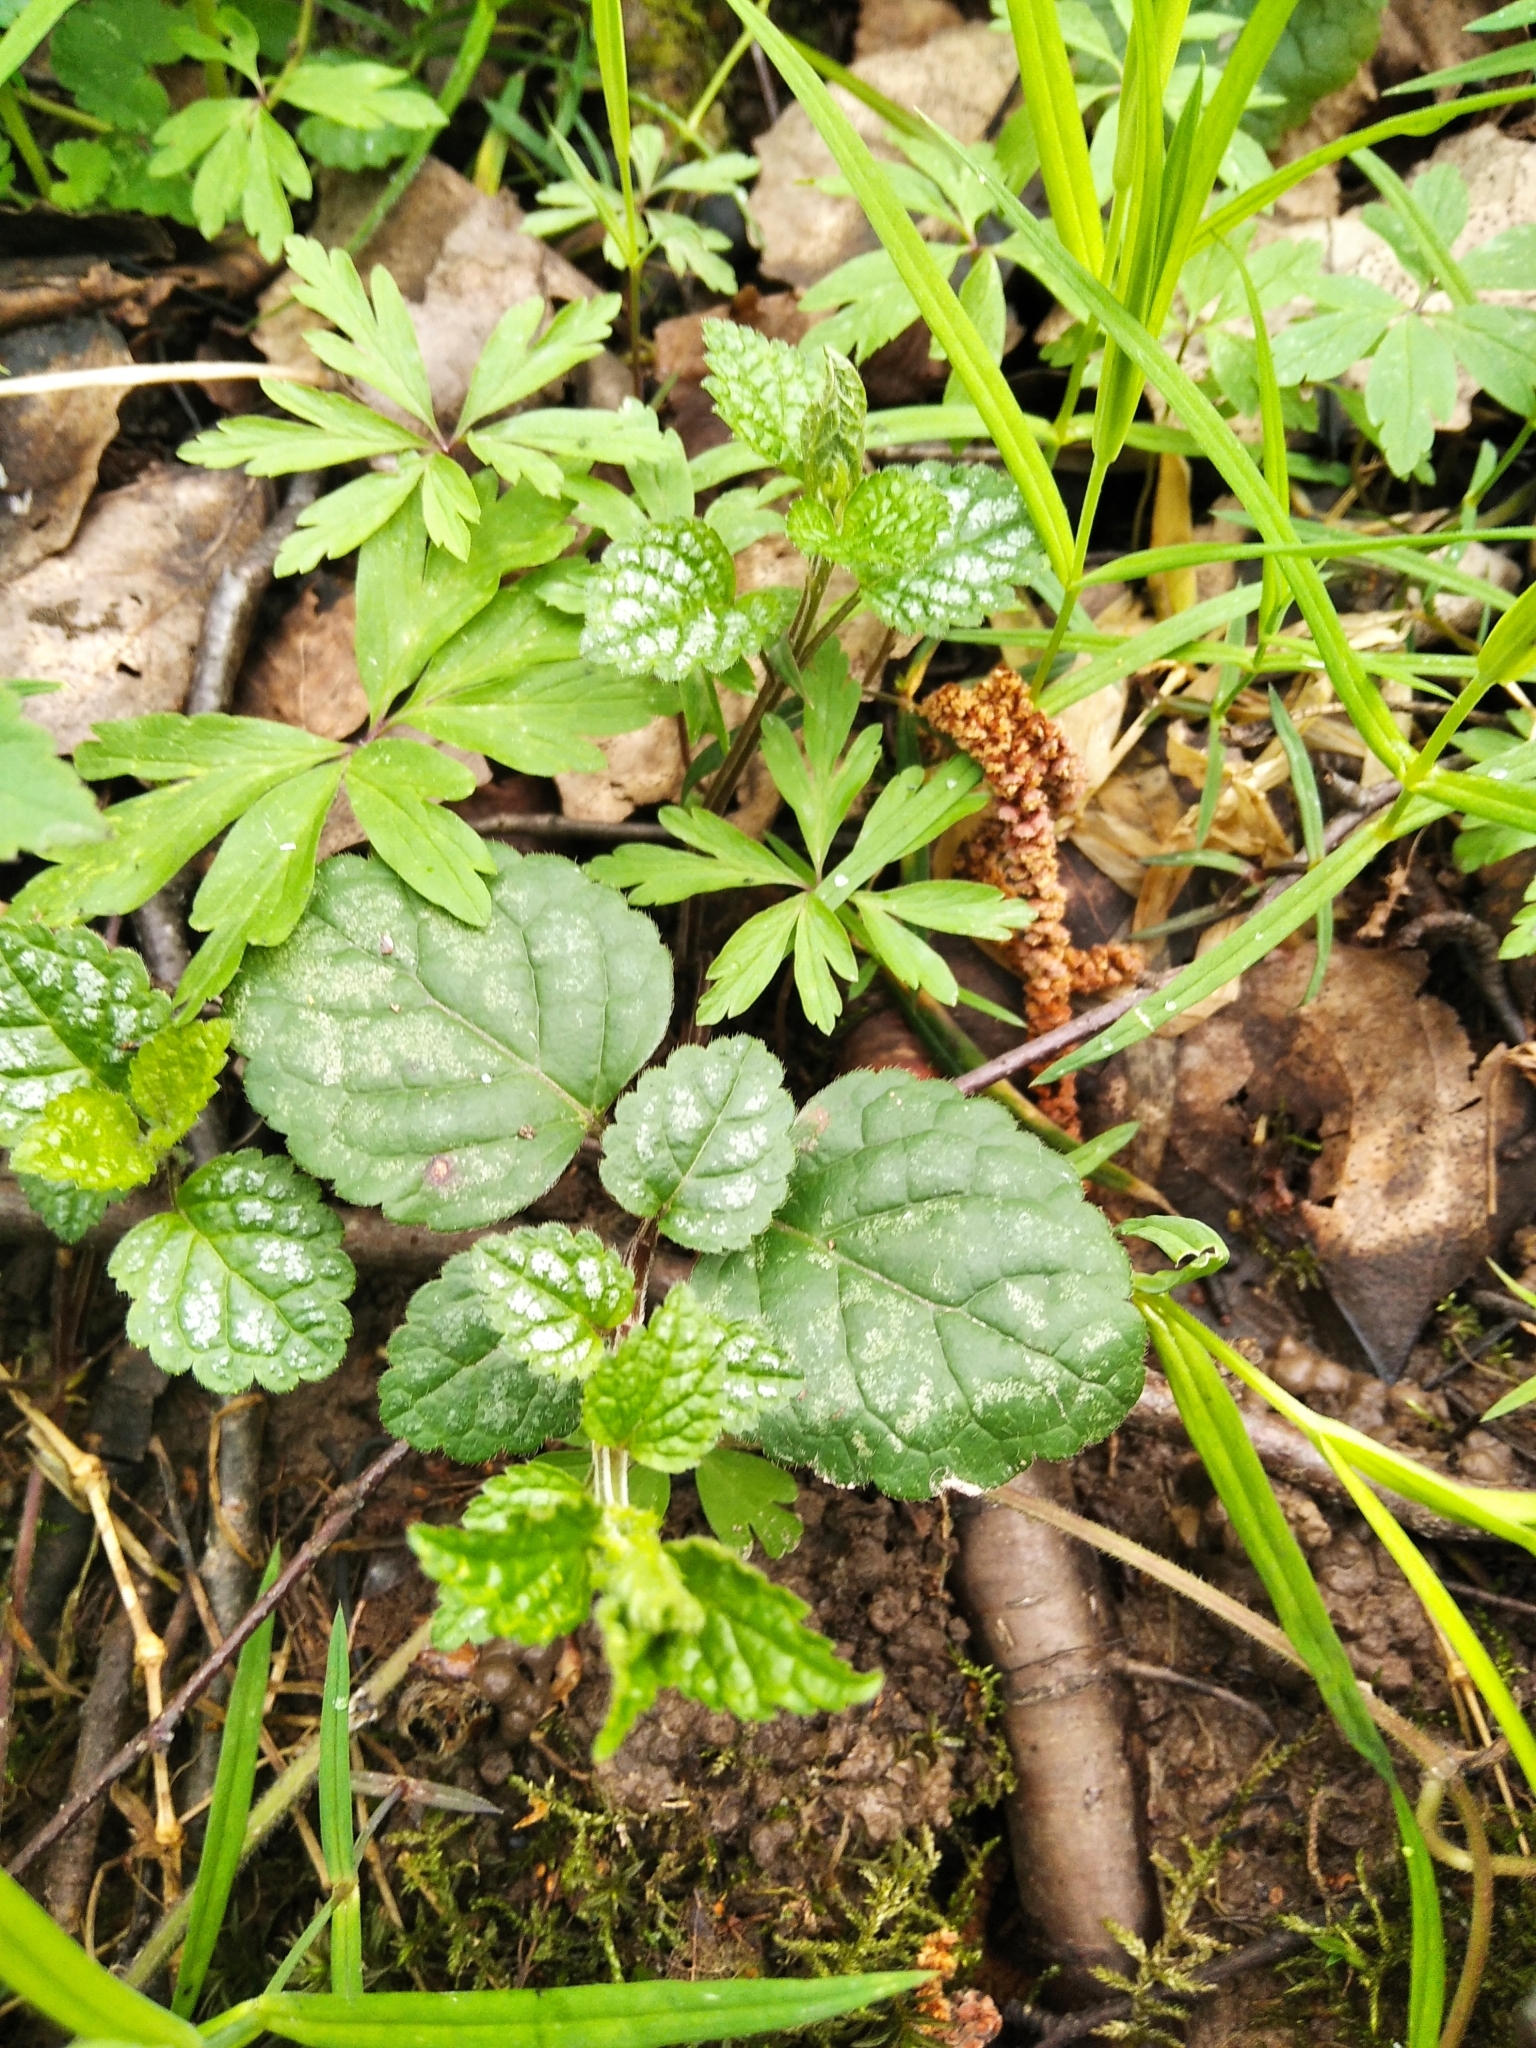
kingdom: Plantae
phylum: Tracheophyta
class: Magnoliopsida
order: Lamiales
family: Lamiaceae
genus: Lamium
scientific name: Lamium galeobdolon
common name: Yellow archangel
